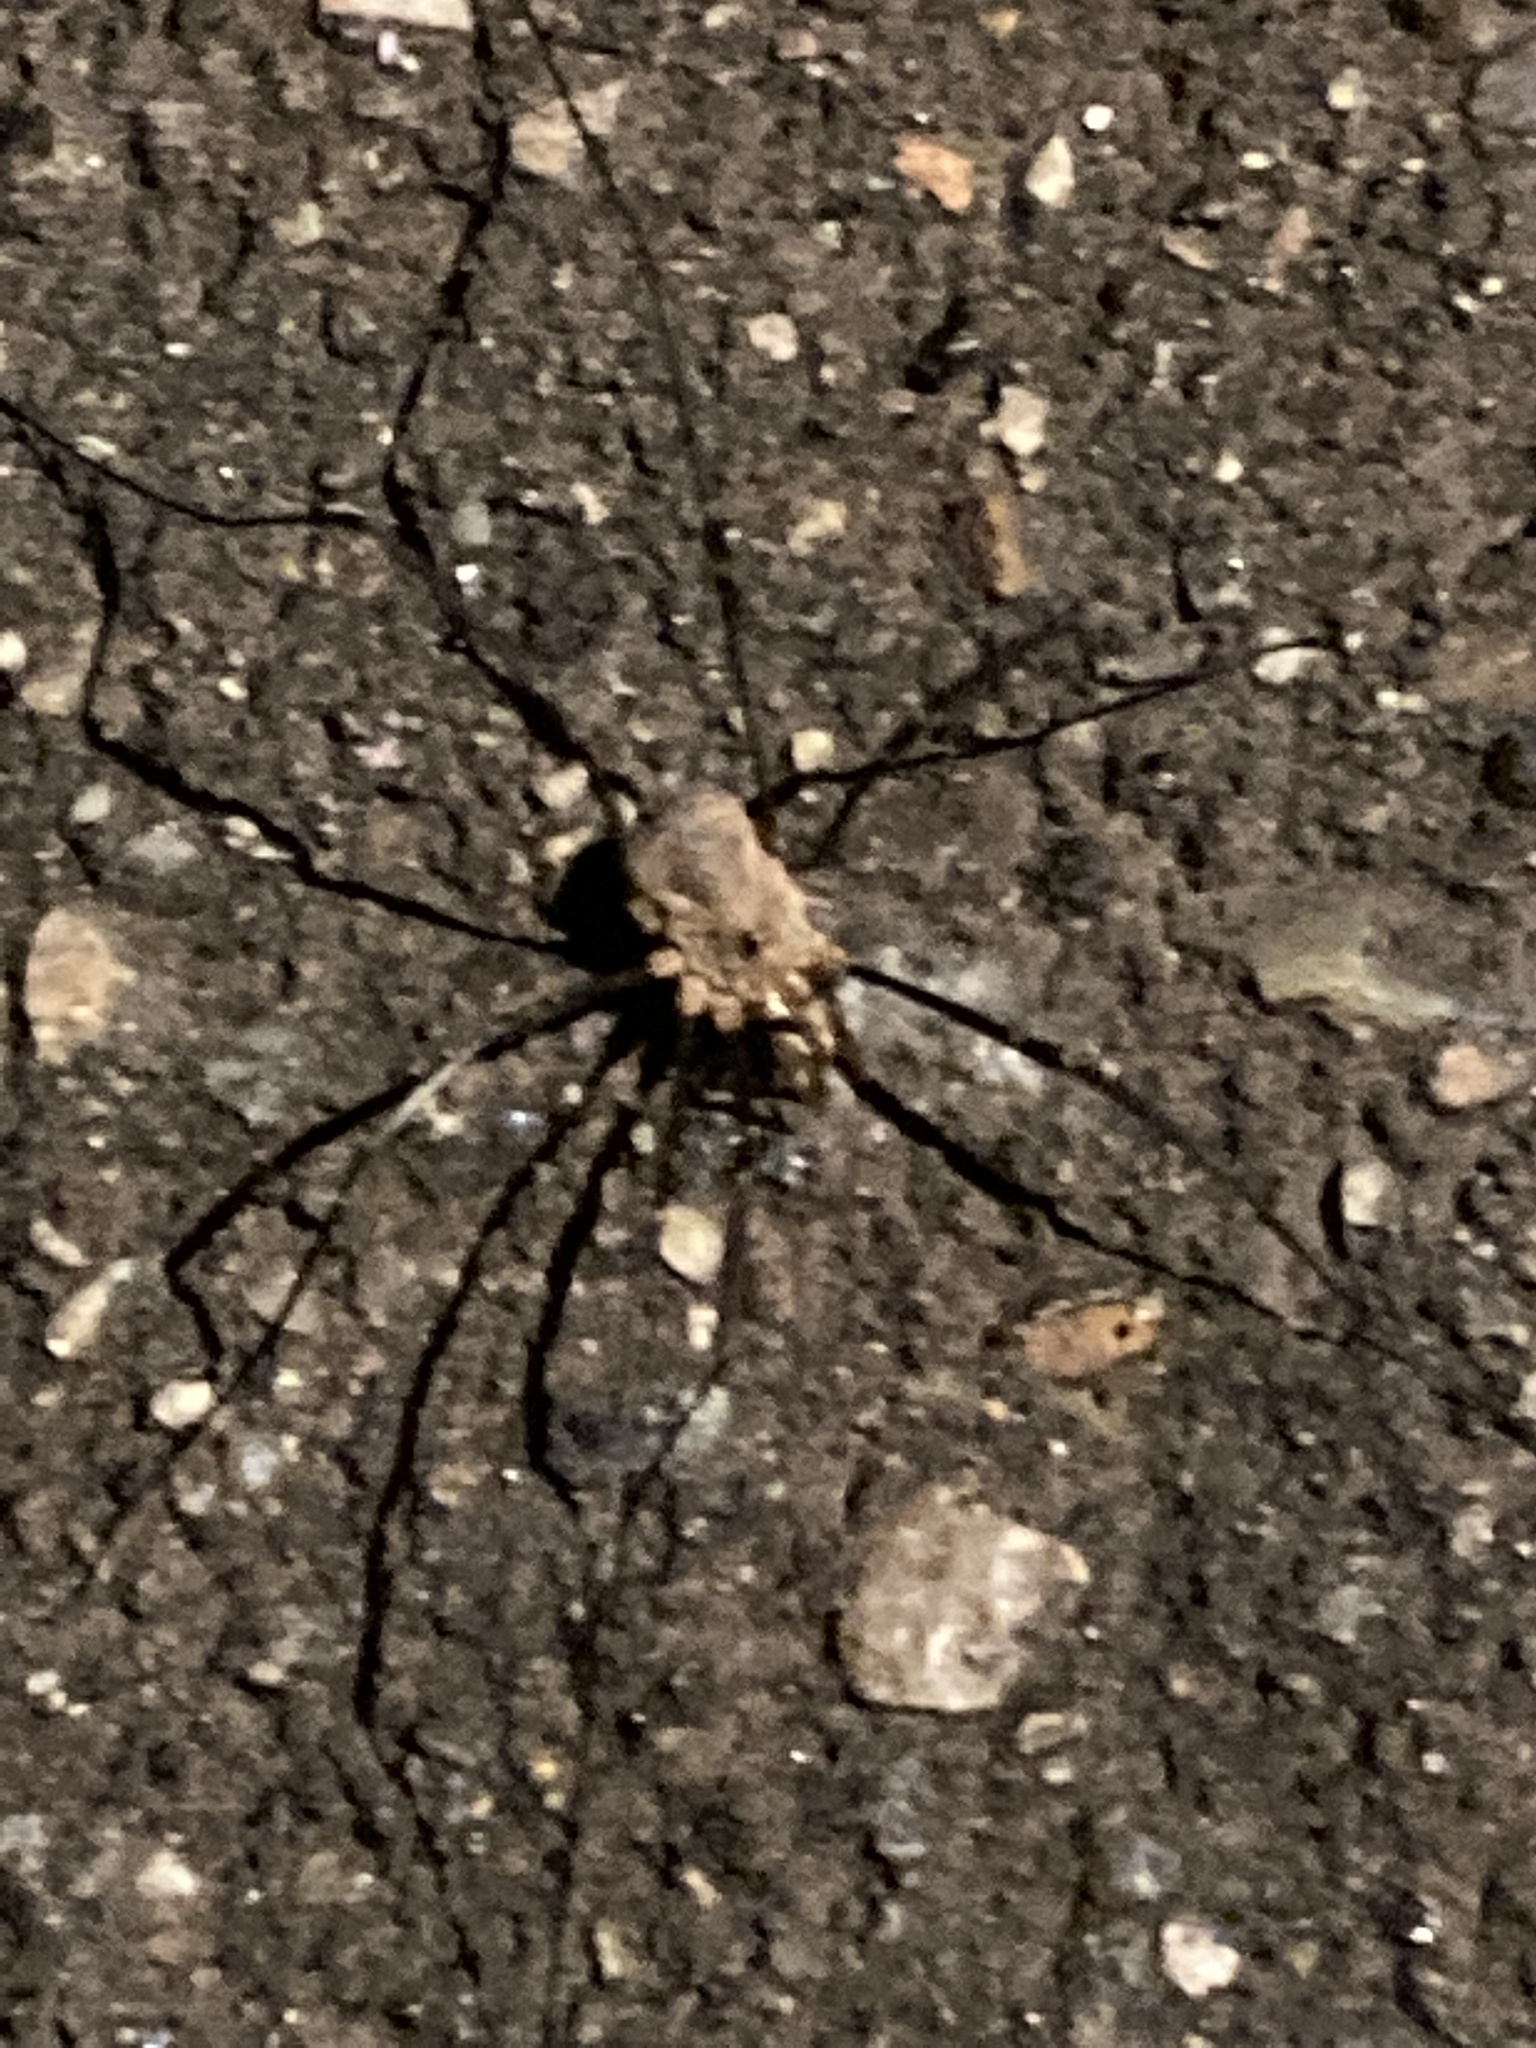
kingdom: Animalia
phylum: Arthropoda
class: Arachnida
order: Opiliones
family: Phalangiidae
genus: Phalangium
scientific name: Phalangium opilio
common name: Daddy longleg
